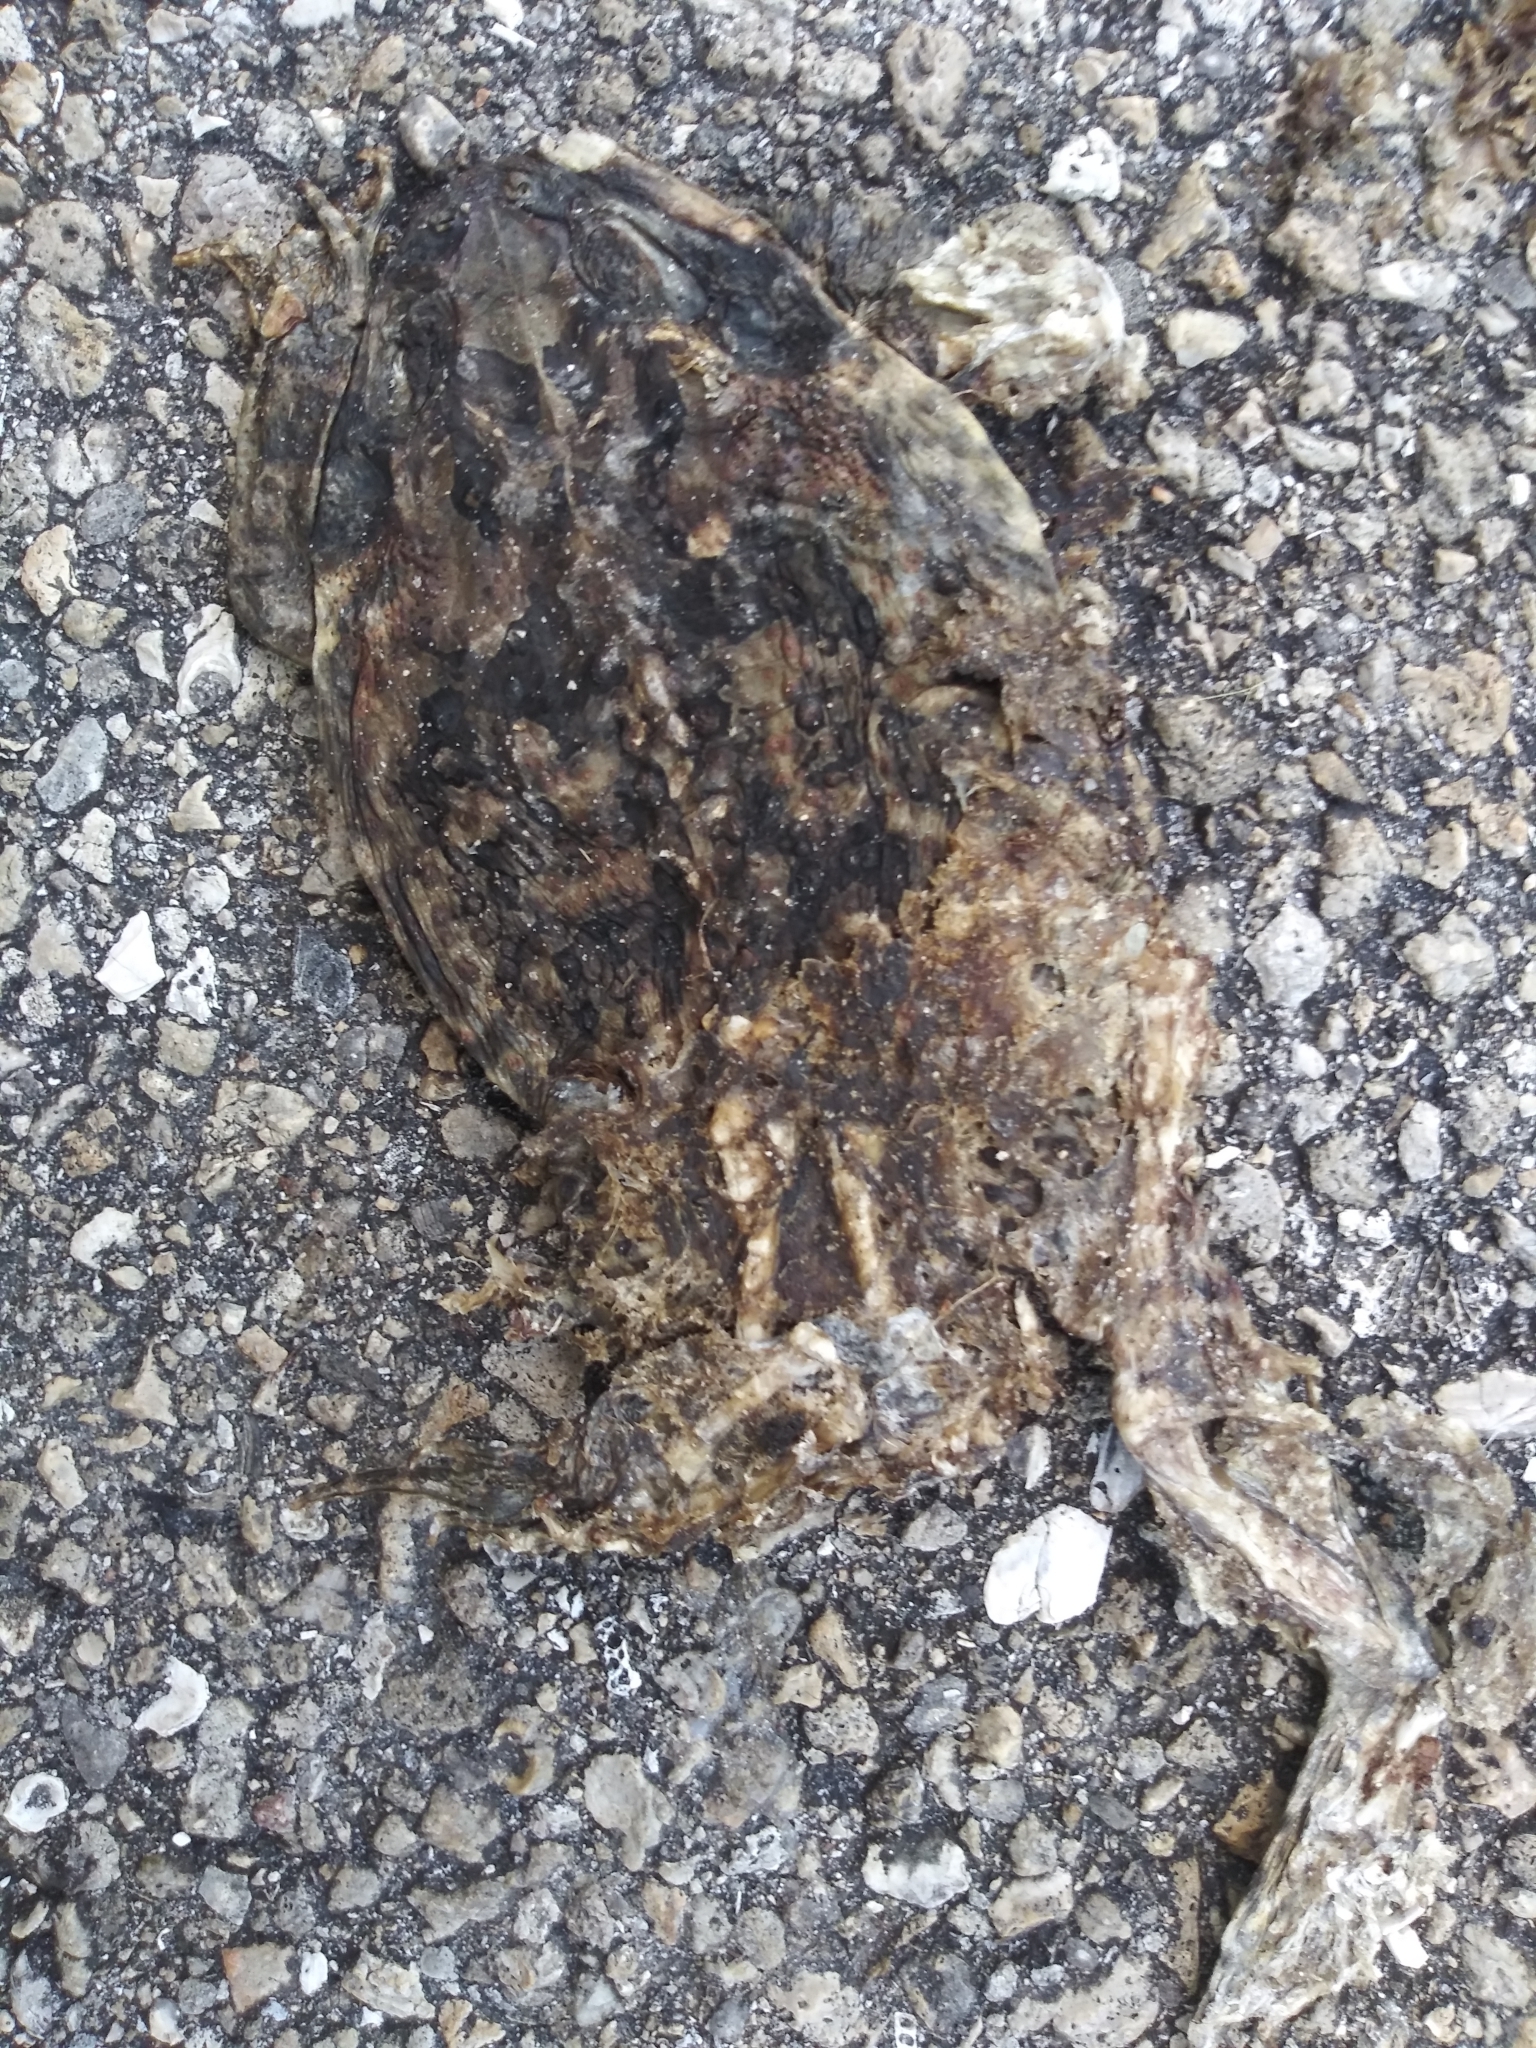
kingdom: Animalia
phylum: Chordata
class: Amphibia
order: Anura
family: Bufonidae
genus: Rhinella
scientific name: Rhinella marina
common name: Cane toad
